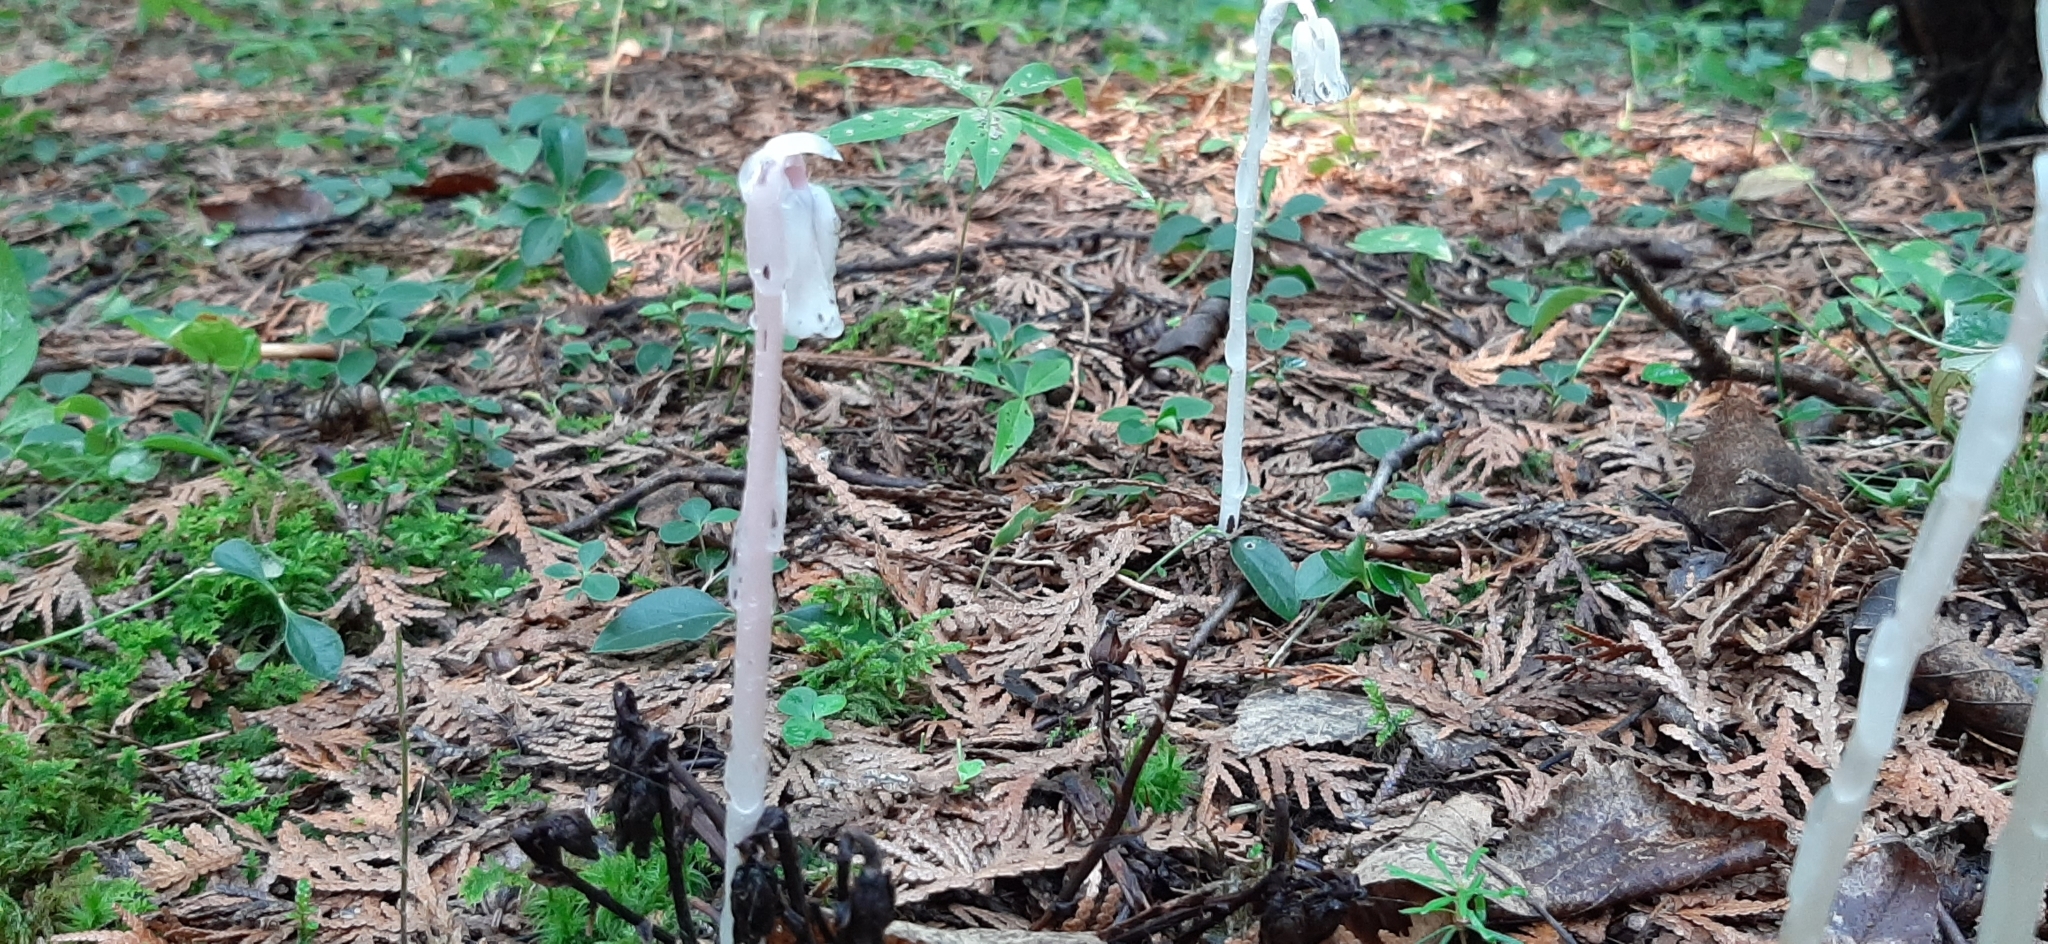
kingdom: Plantae
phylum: Tracheophyta
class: Magnoliopsida
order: Ericales
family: Ericaceae
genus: Monotropa
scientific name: Monotropa uniflora
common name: Convulsion root
